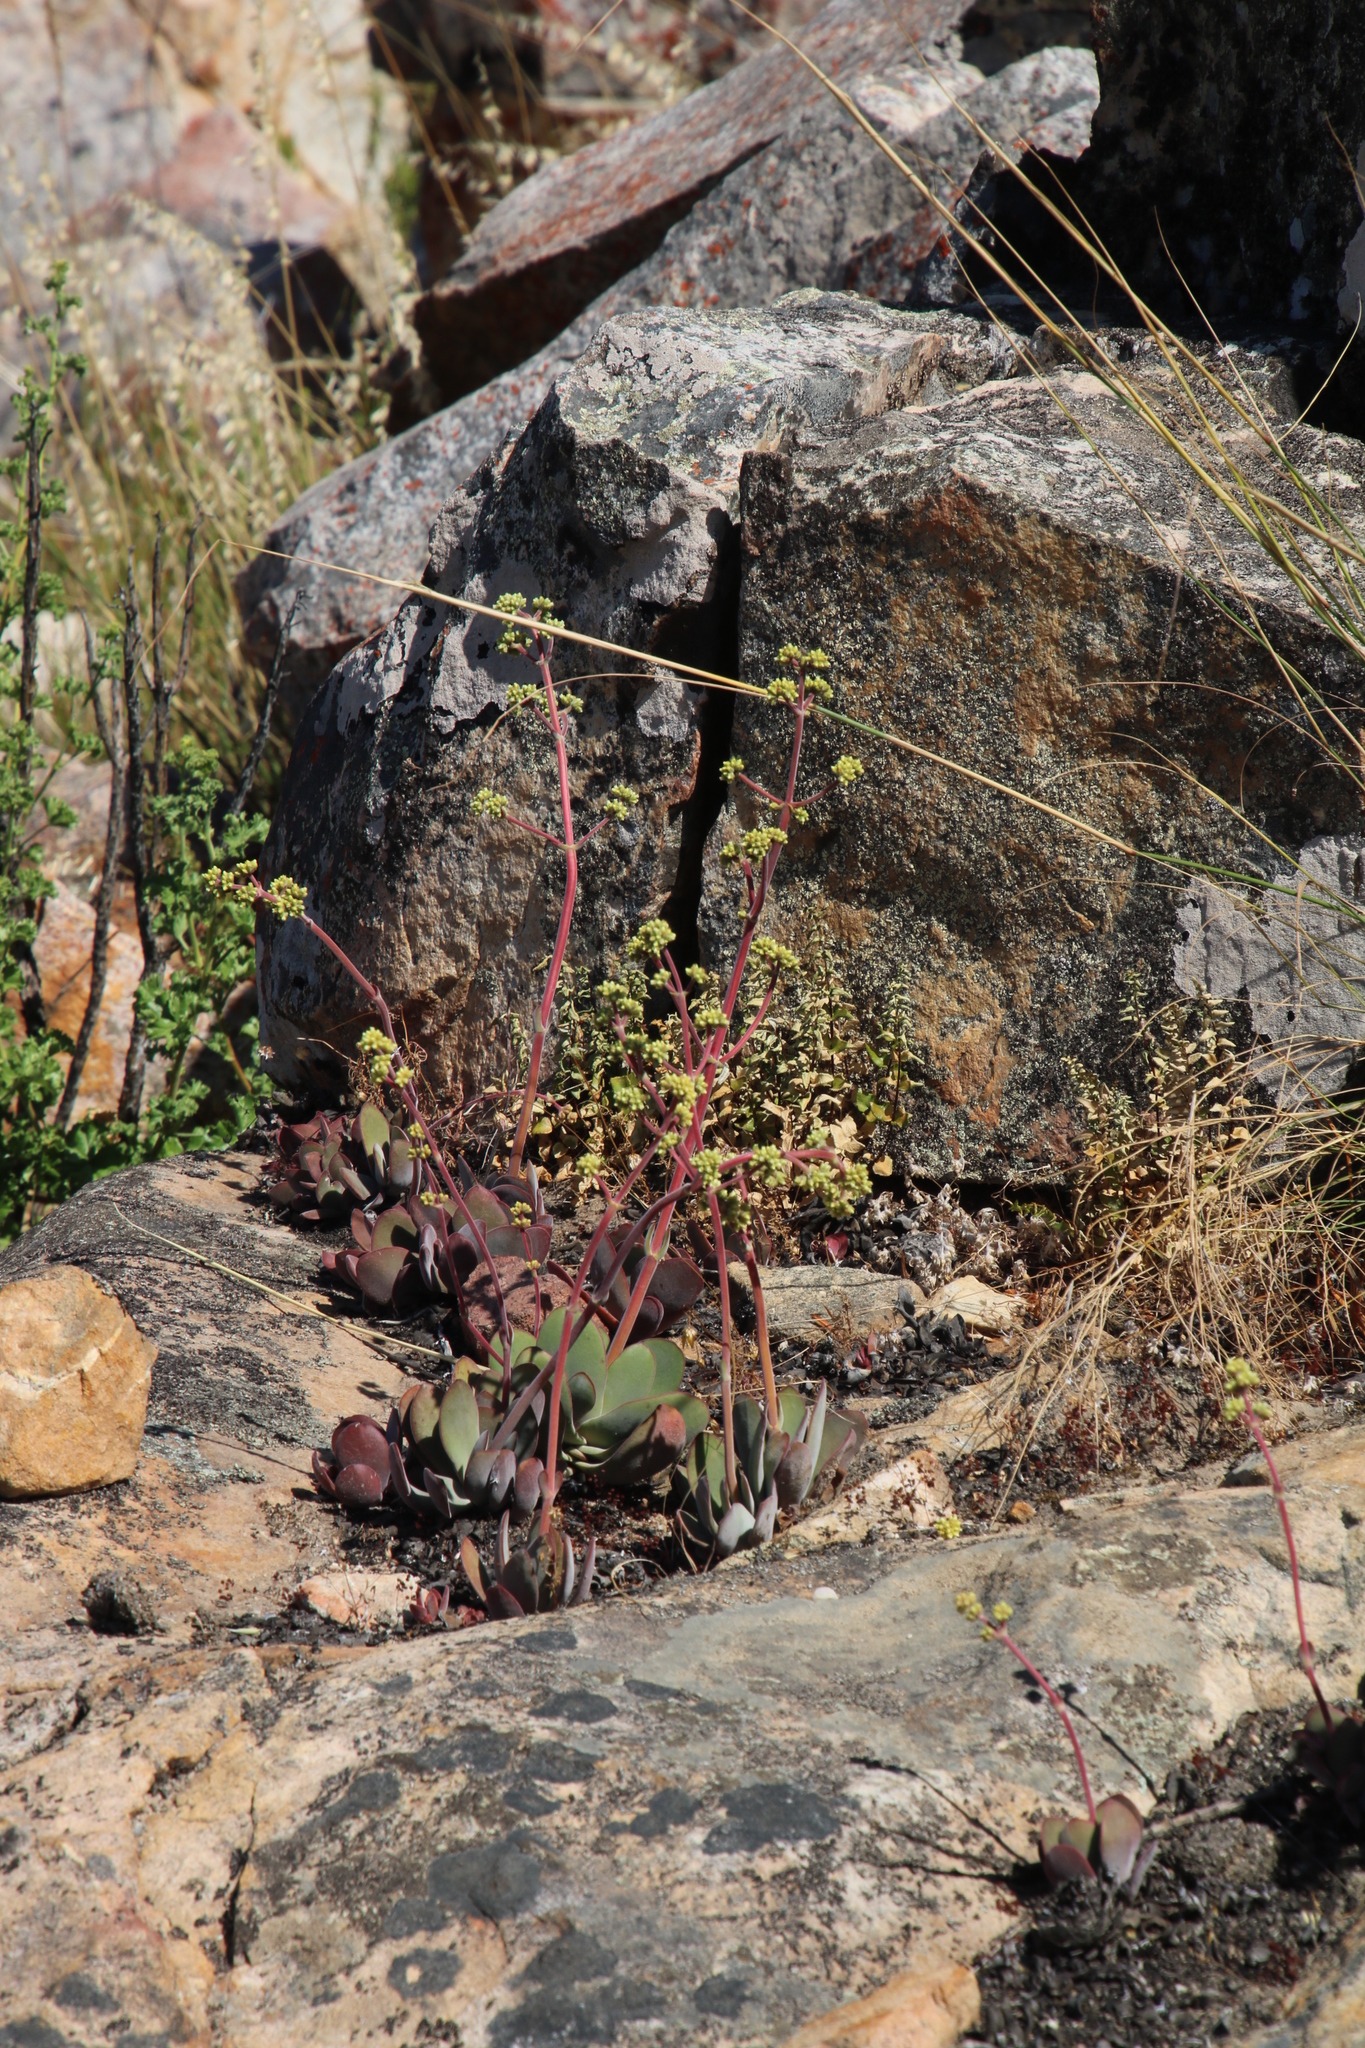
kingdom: Plantae
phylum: Tracheophyta
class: Magnoliopsida
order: Saxifragales
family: Crassulaceae
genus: Crassula
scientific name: Crassula nudicaulis
